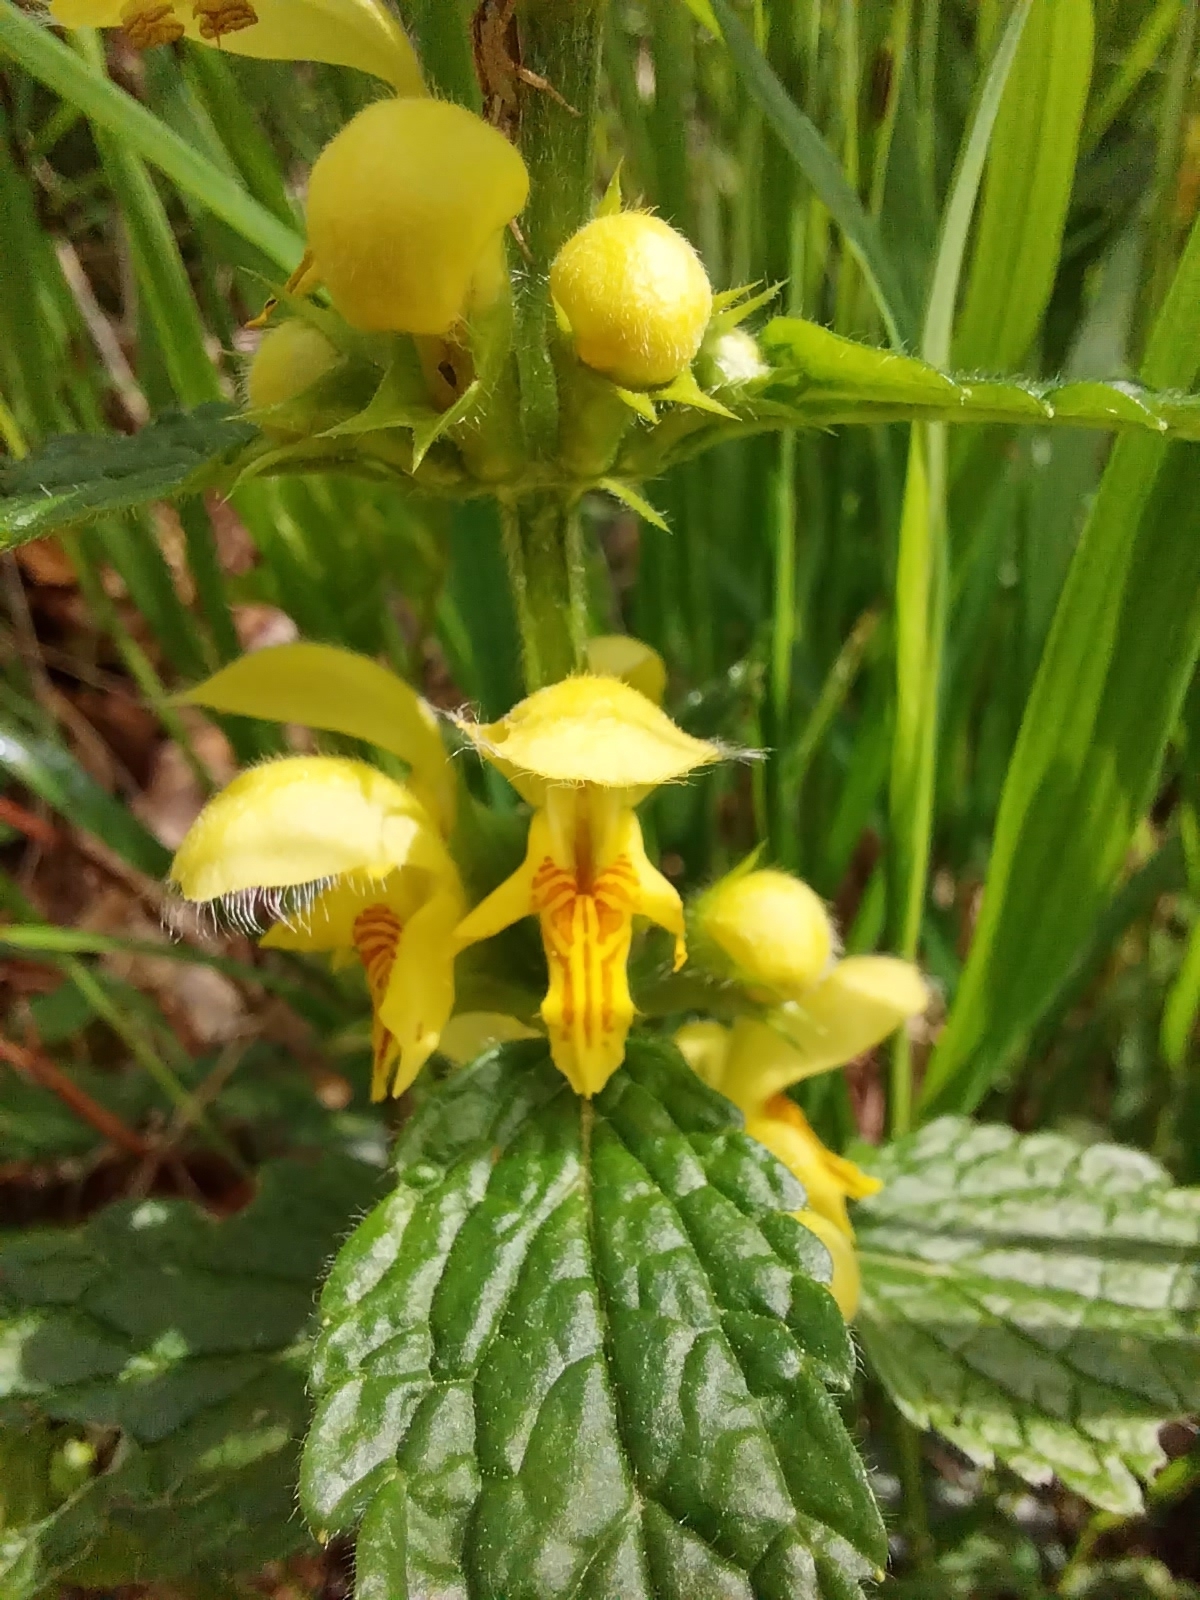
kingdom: Plantae
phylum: Tracheophyta
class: Magnoliopsida
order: Lamiales
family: Lamiaceae
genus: Lamium
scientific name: Lamium galeobdolon
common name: Yellow archangel
